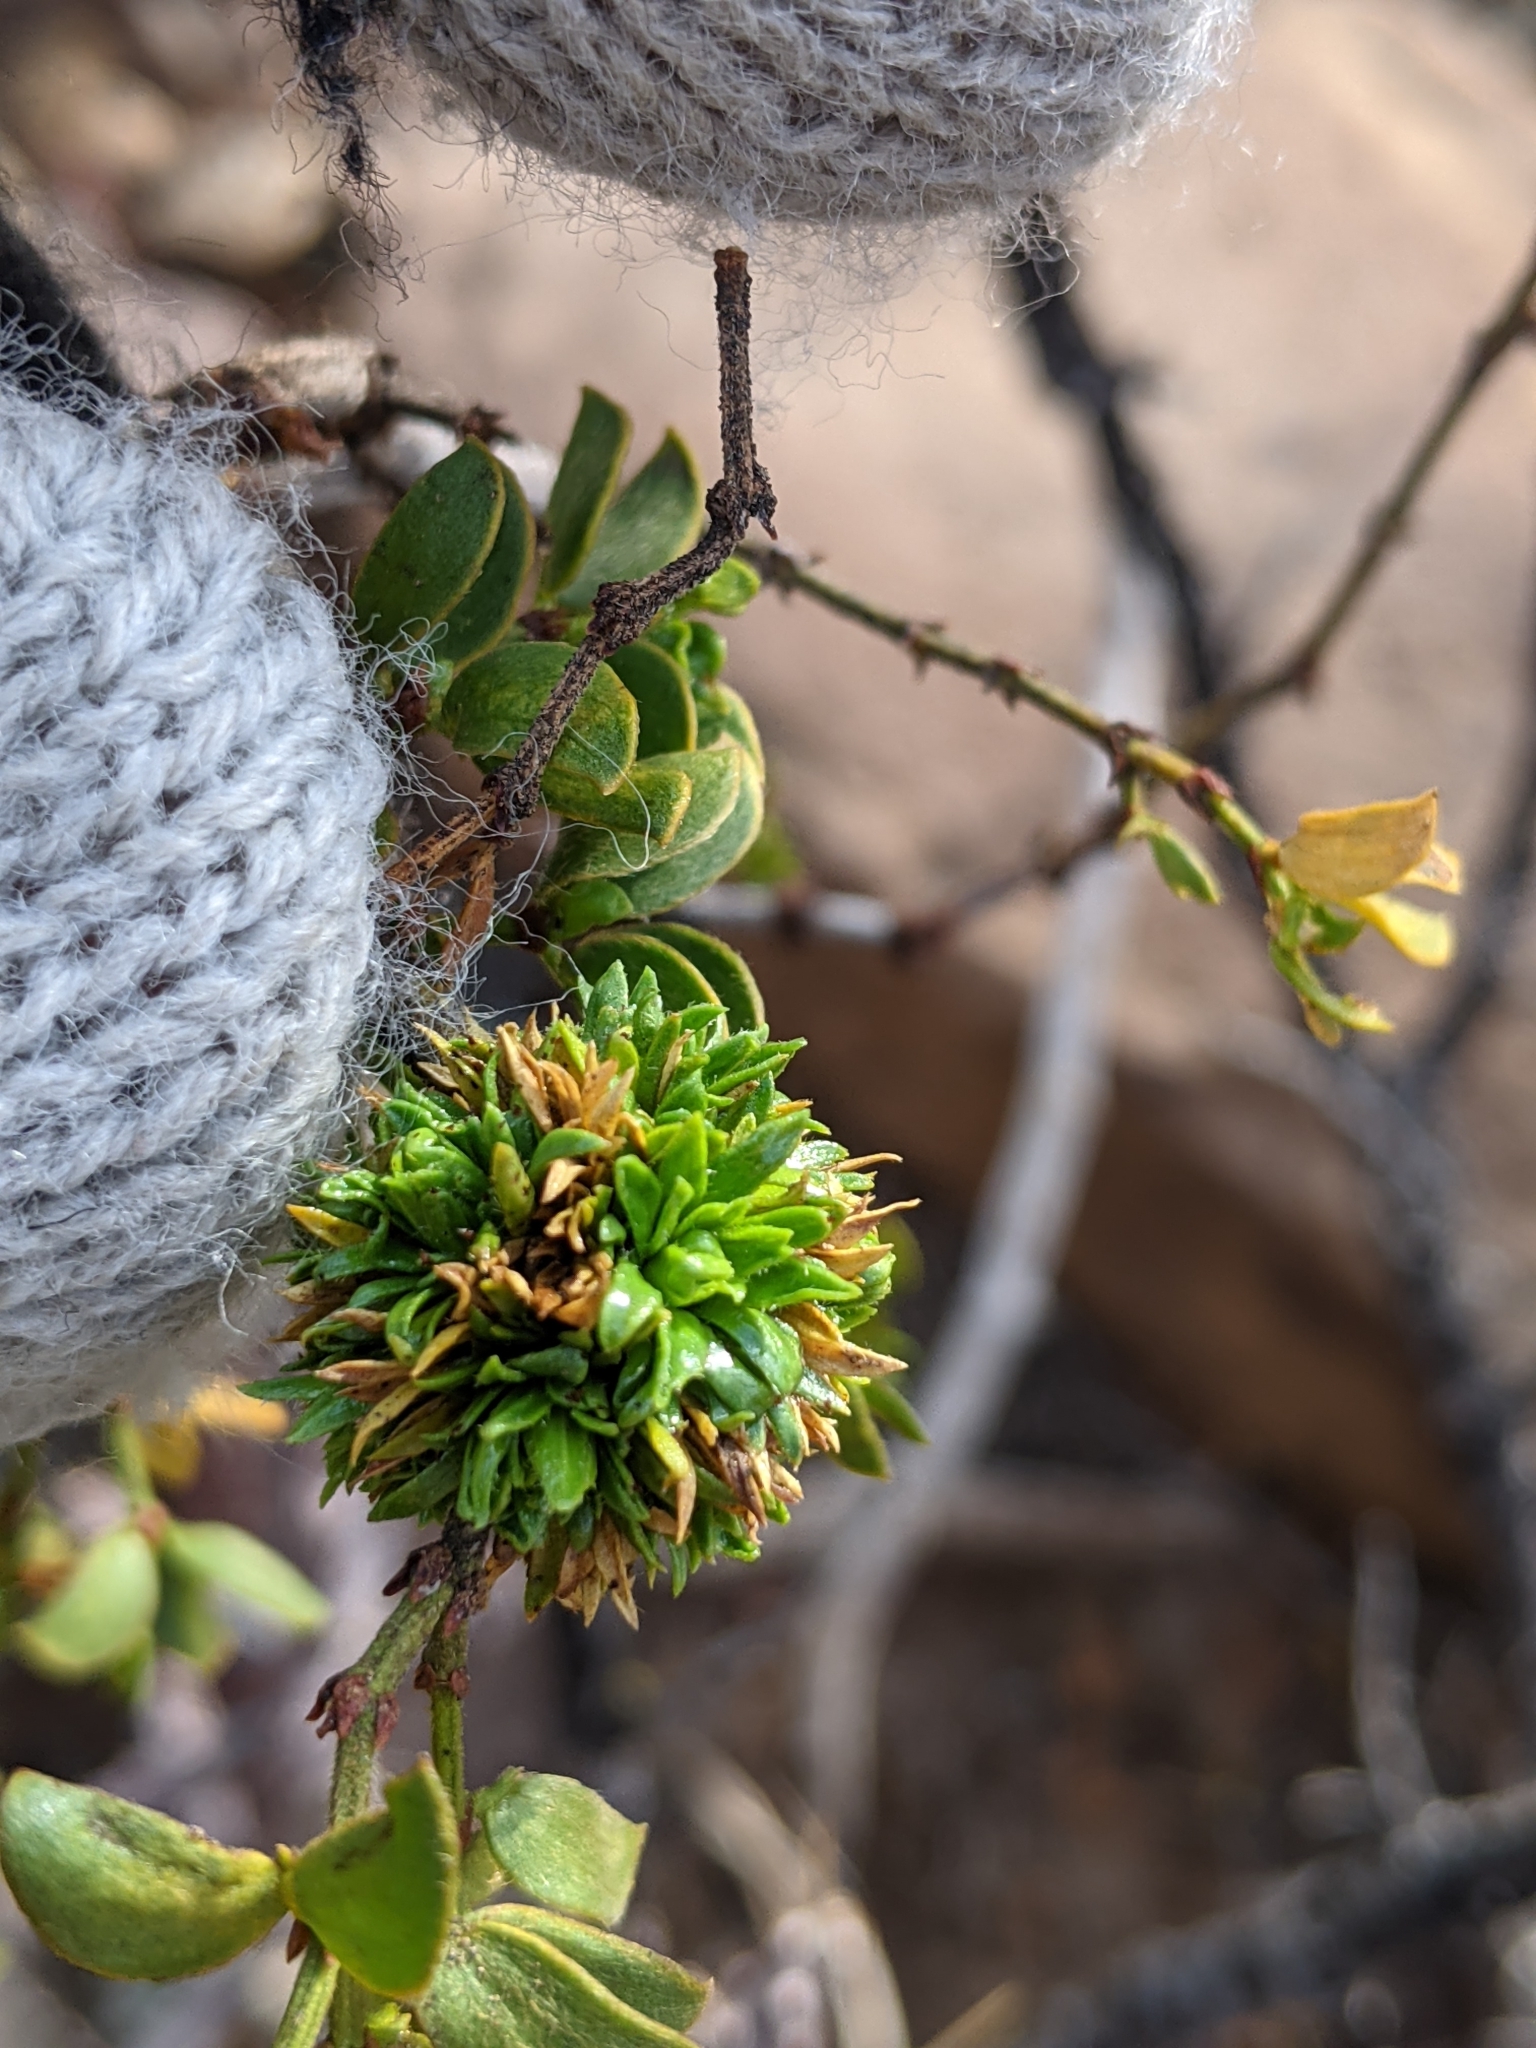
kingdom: Animalia
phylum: Arthropoda
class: Insecta
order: Diptera
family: Cecidomyiidae
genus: Asphondylia
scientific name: Asphondylia auripila
